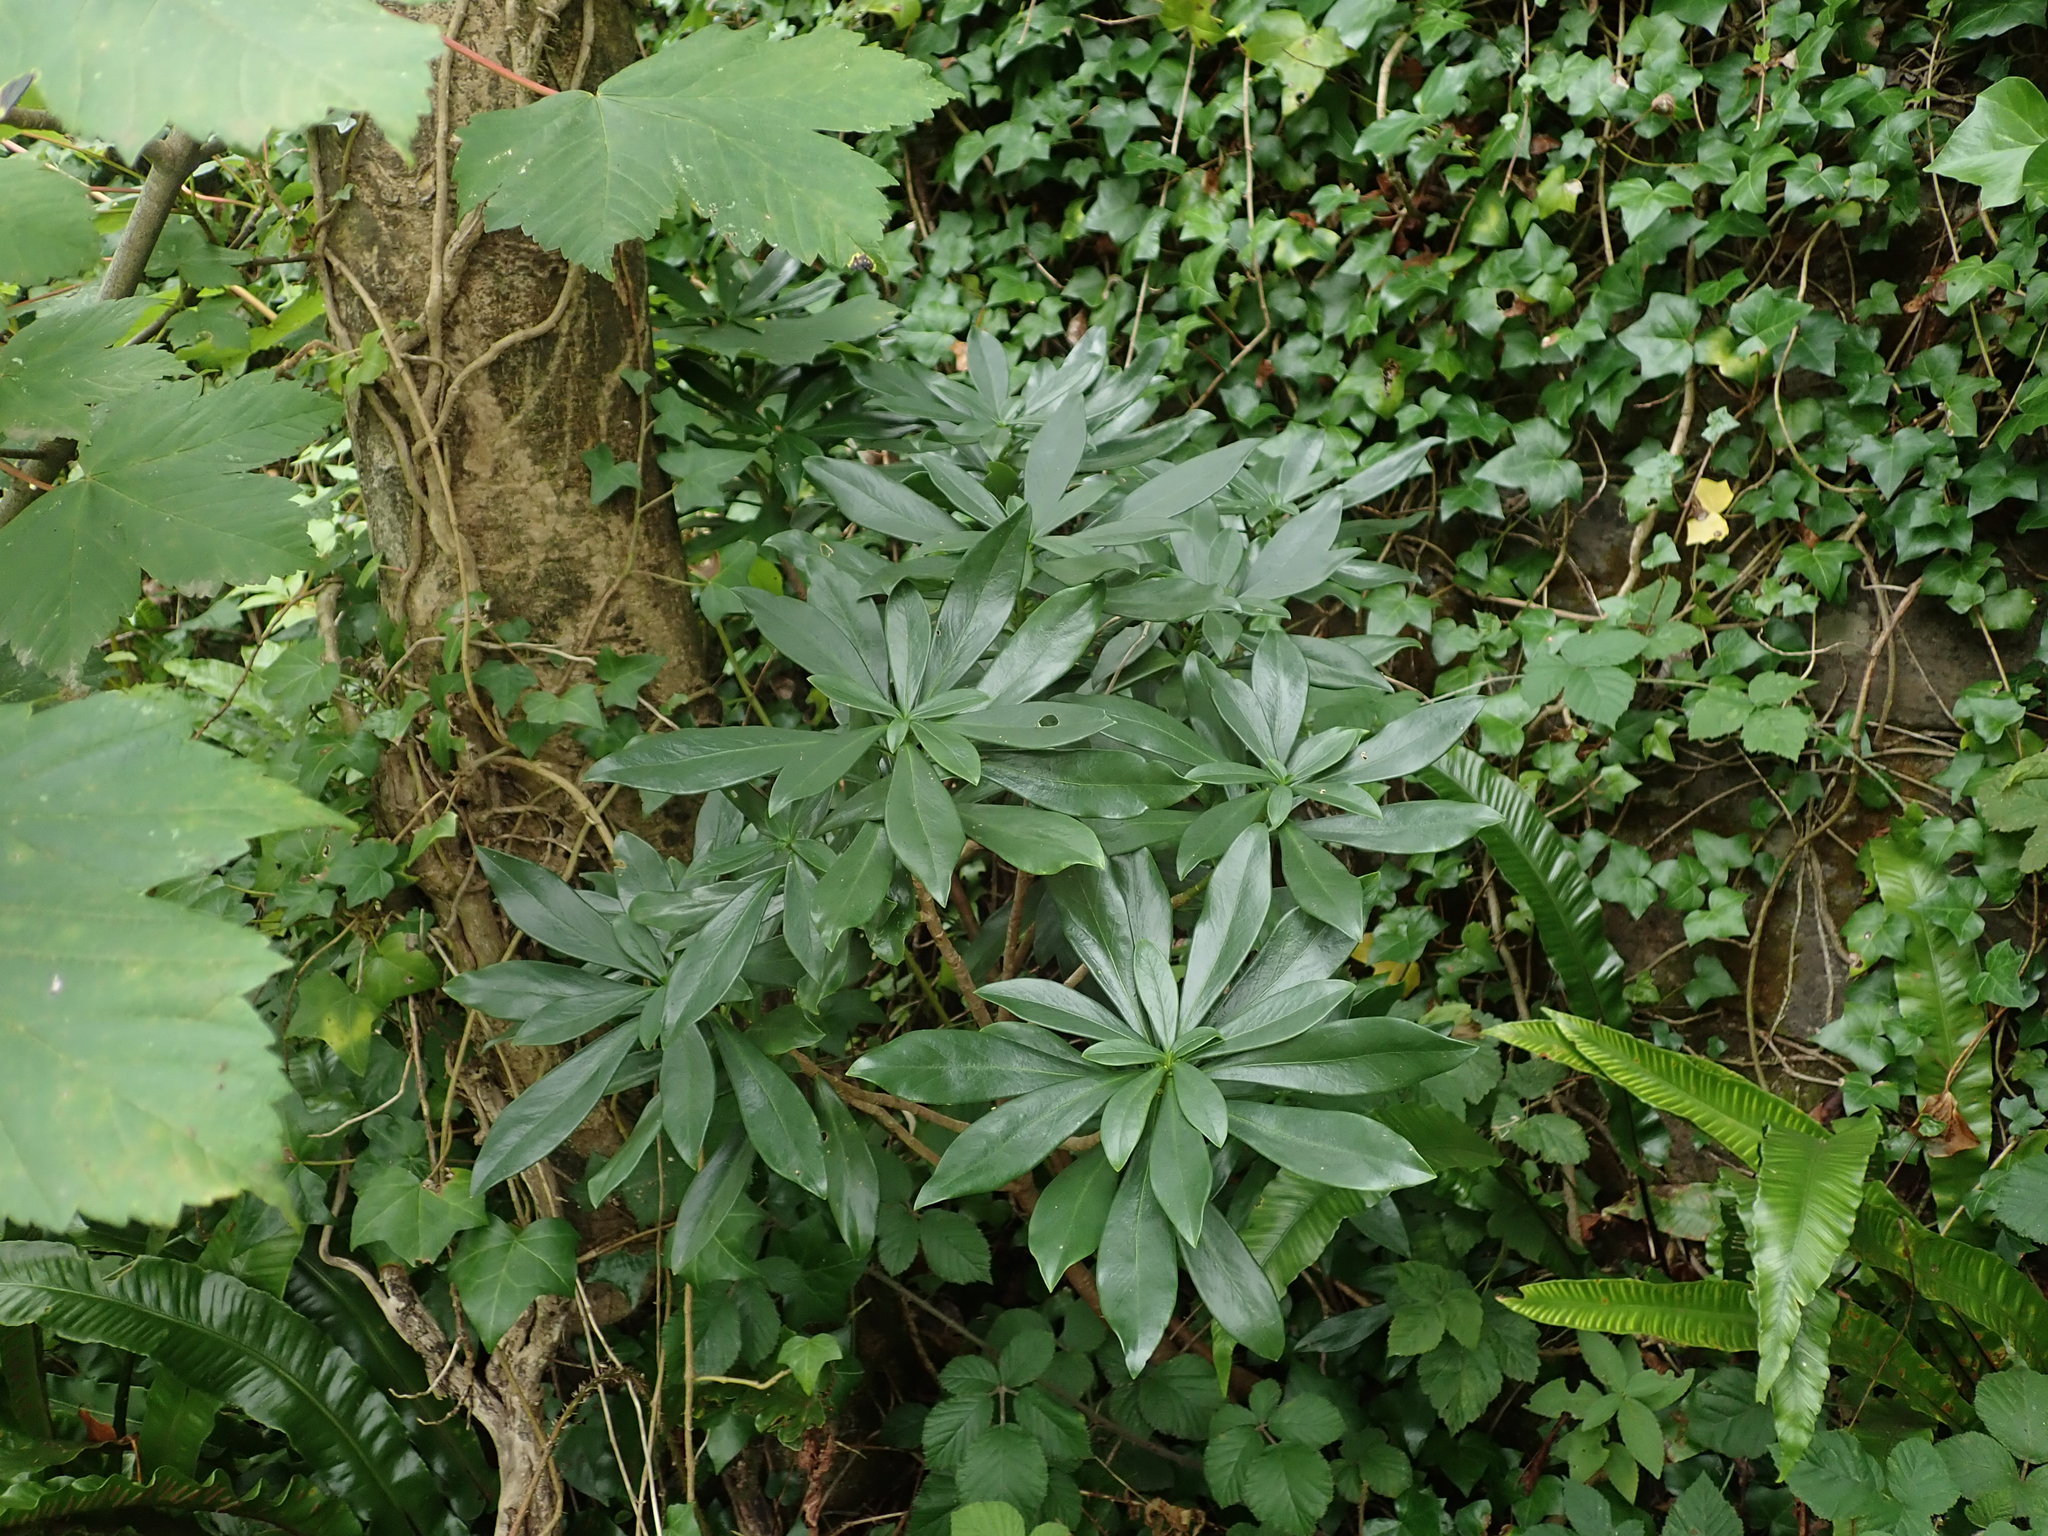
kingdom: Plantae
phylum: Tracheophyta
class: Magnoliopsida
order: Malvales
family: Thymelaeaceae
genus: Daphne
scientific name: Daphne laureola
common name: Spurge-laurel
